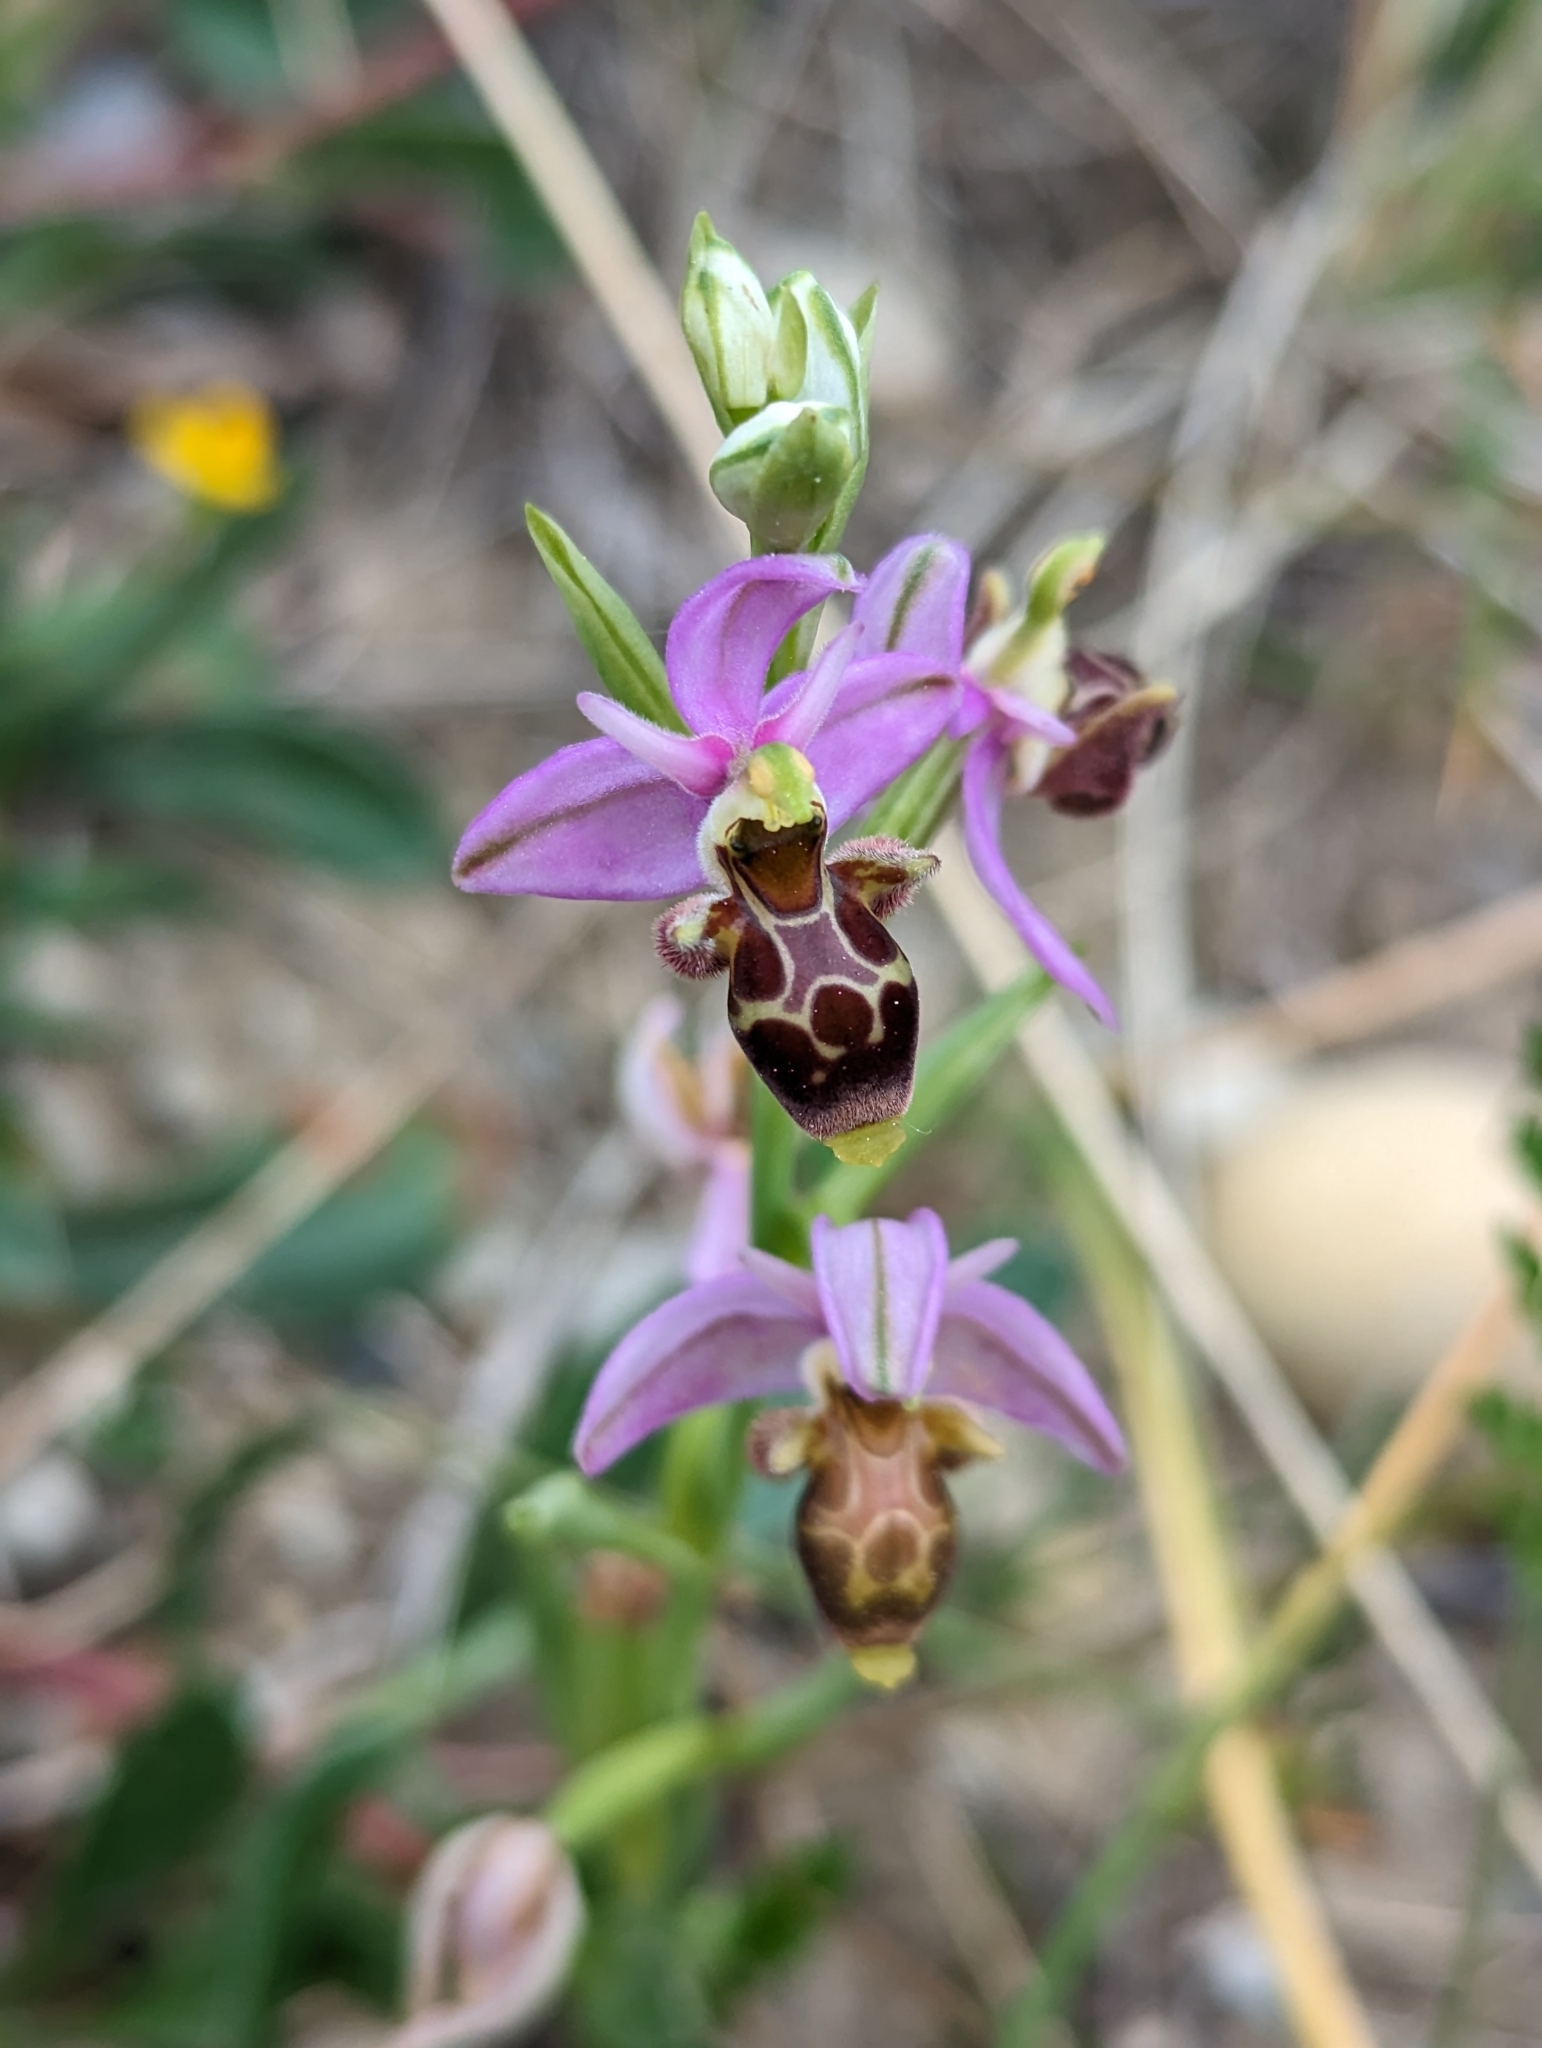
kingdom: Plantae
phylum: Tracheophyta
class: Liliopsida
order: Asparagales
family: Orchidaceae
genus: Ophrys
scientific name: Ophrys scolopax
